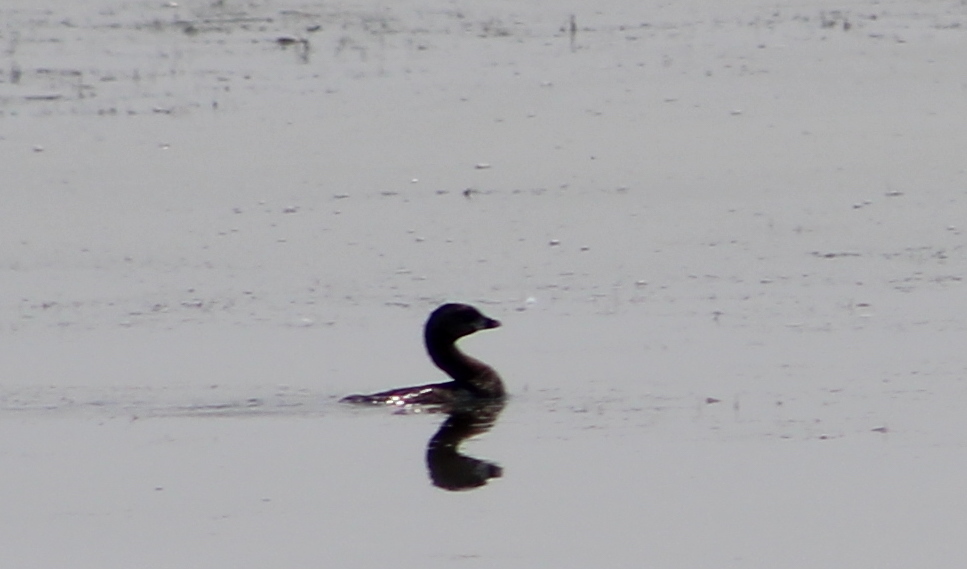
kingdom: Animalia
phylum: Chordata
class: Aves
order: Podicipediformes
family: Podicipedidae
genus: Podilymbus
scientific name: Podilymbus podiceps
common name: Pied-billed grebe
